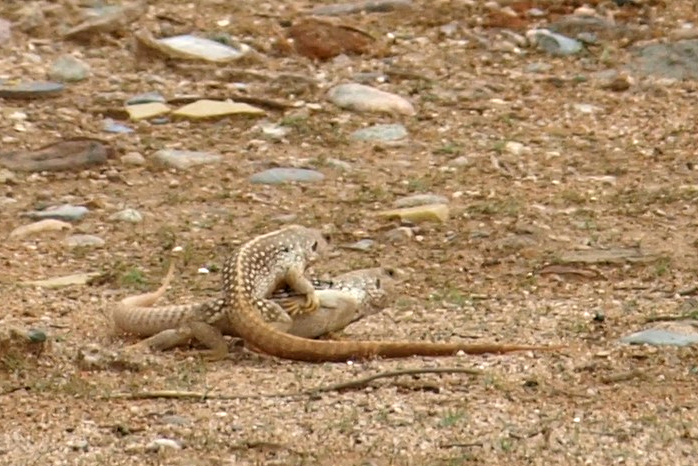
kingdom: Animalia
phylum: Chordata
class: Squamata
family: Iguanidae
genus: Dipsosaurus
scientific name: Dipsosaurus dorsalis
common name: Desert iguana
